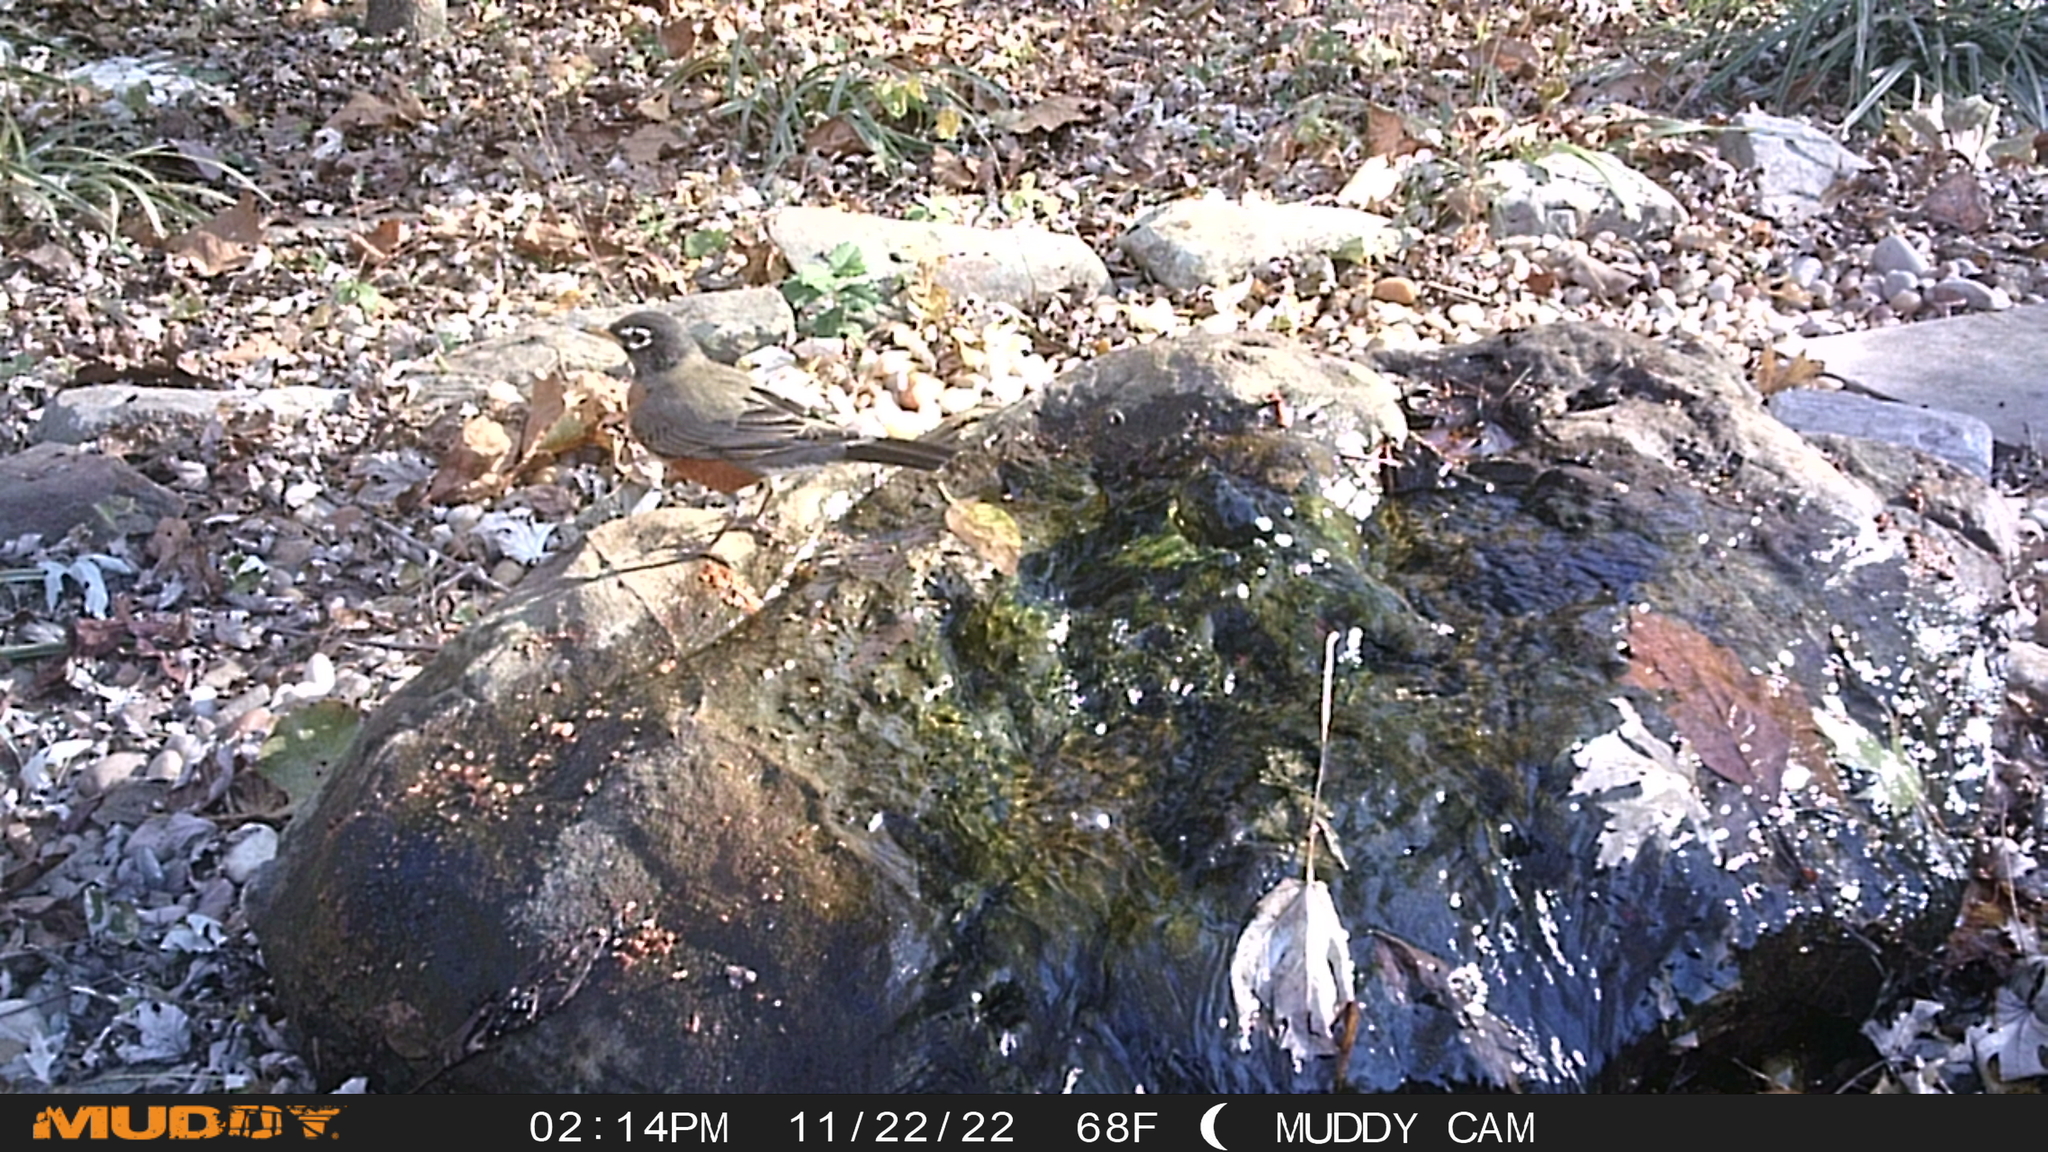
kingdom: Animalia
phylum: Chordata
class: Aves
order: Passeriformes
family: Turdidae
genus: Turdus
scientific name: Turdus migratorius
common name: American robin
